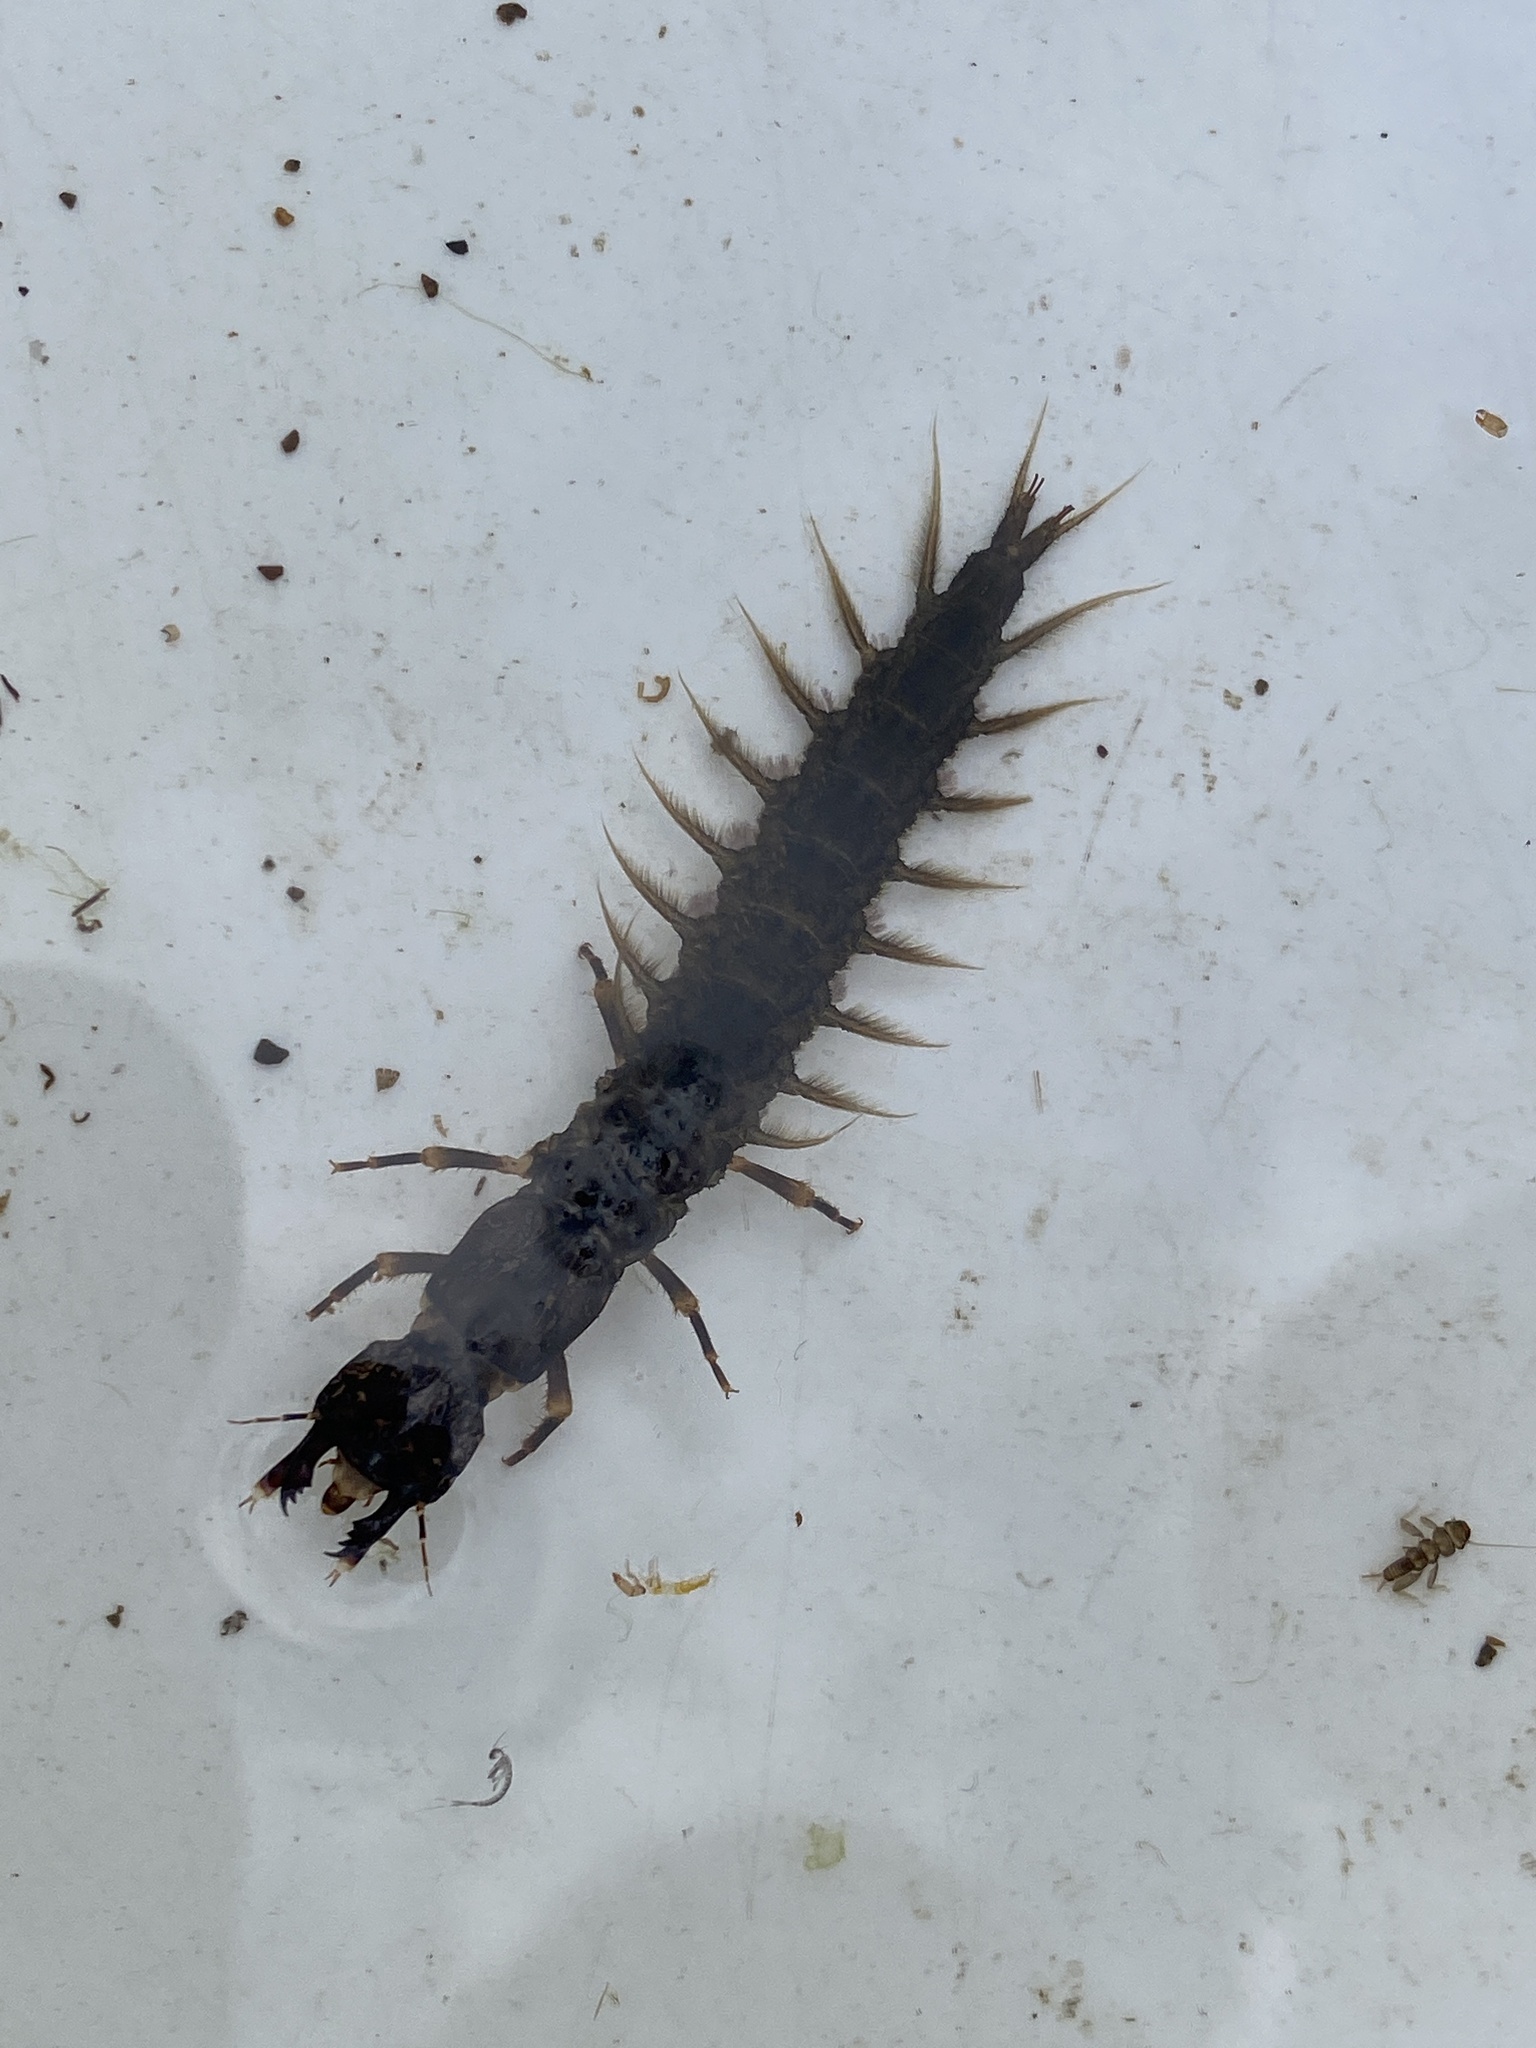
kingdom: Animalia
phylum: Arthropoda
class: Insecta
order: Megaloptera
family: Corydalidae
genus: Corydalus
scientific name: Corydalus cornutus
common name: Dobsonfly
